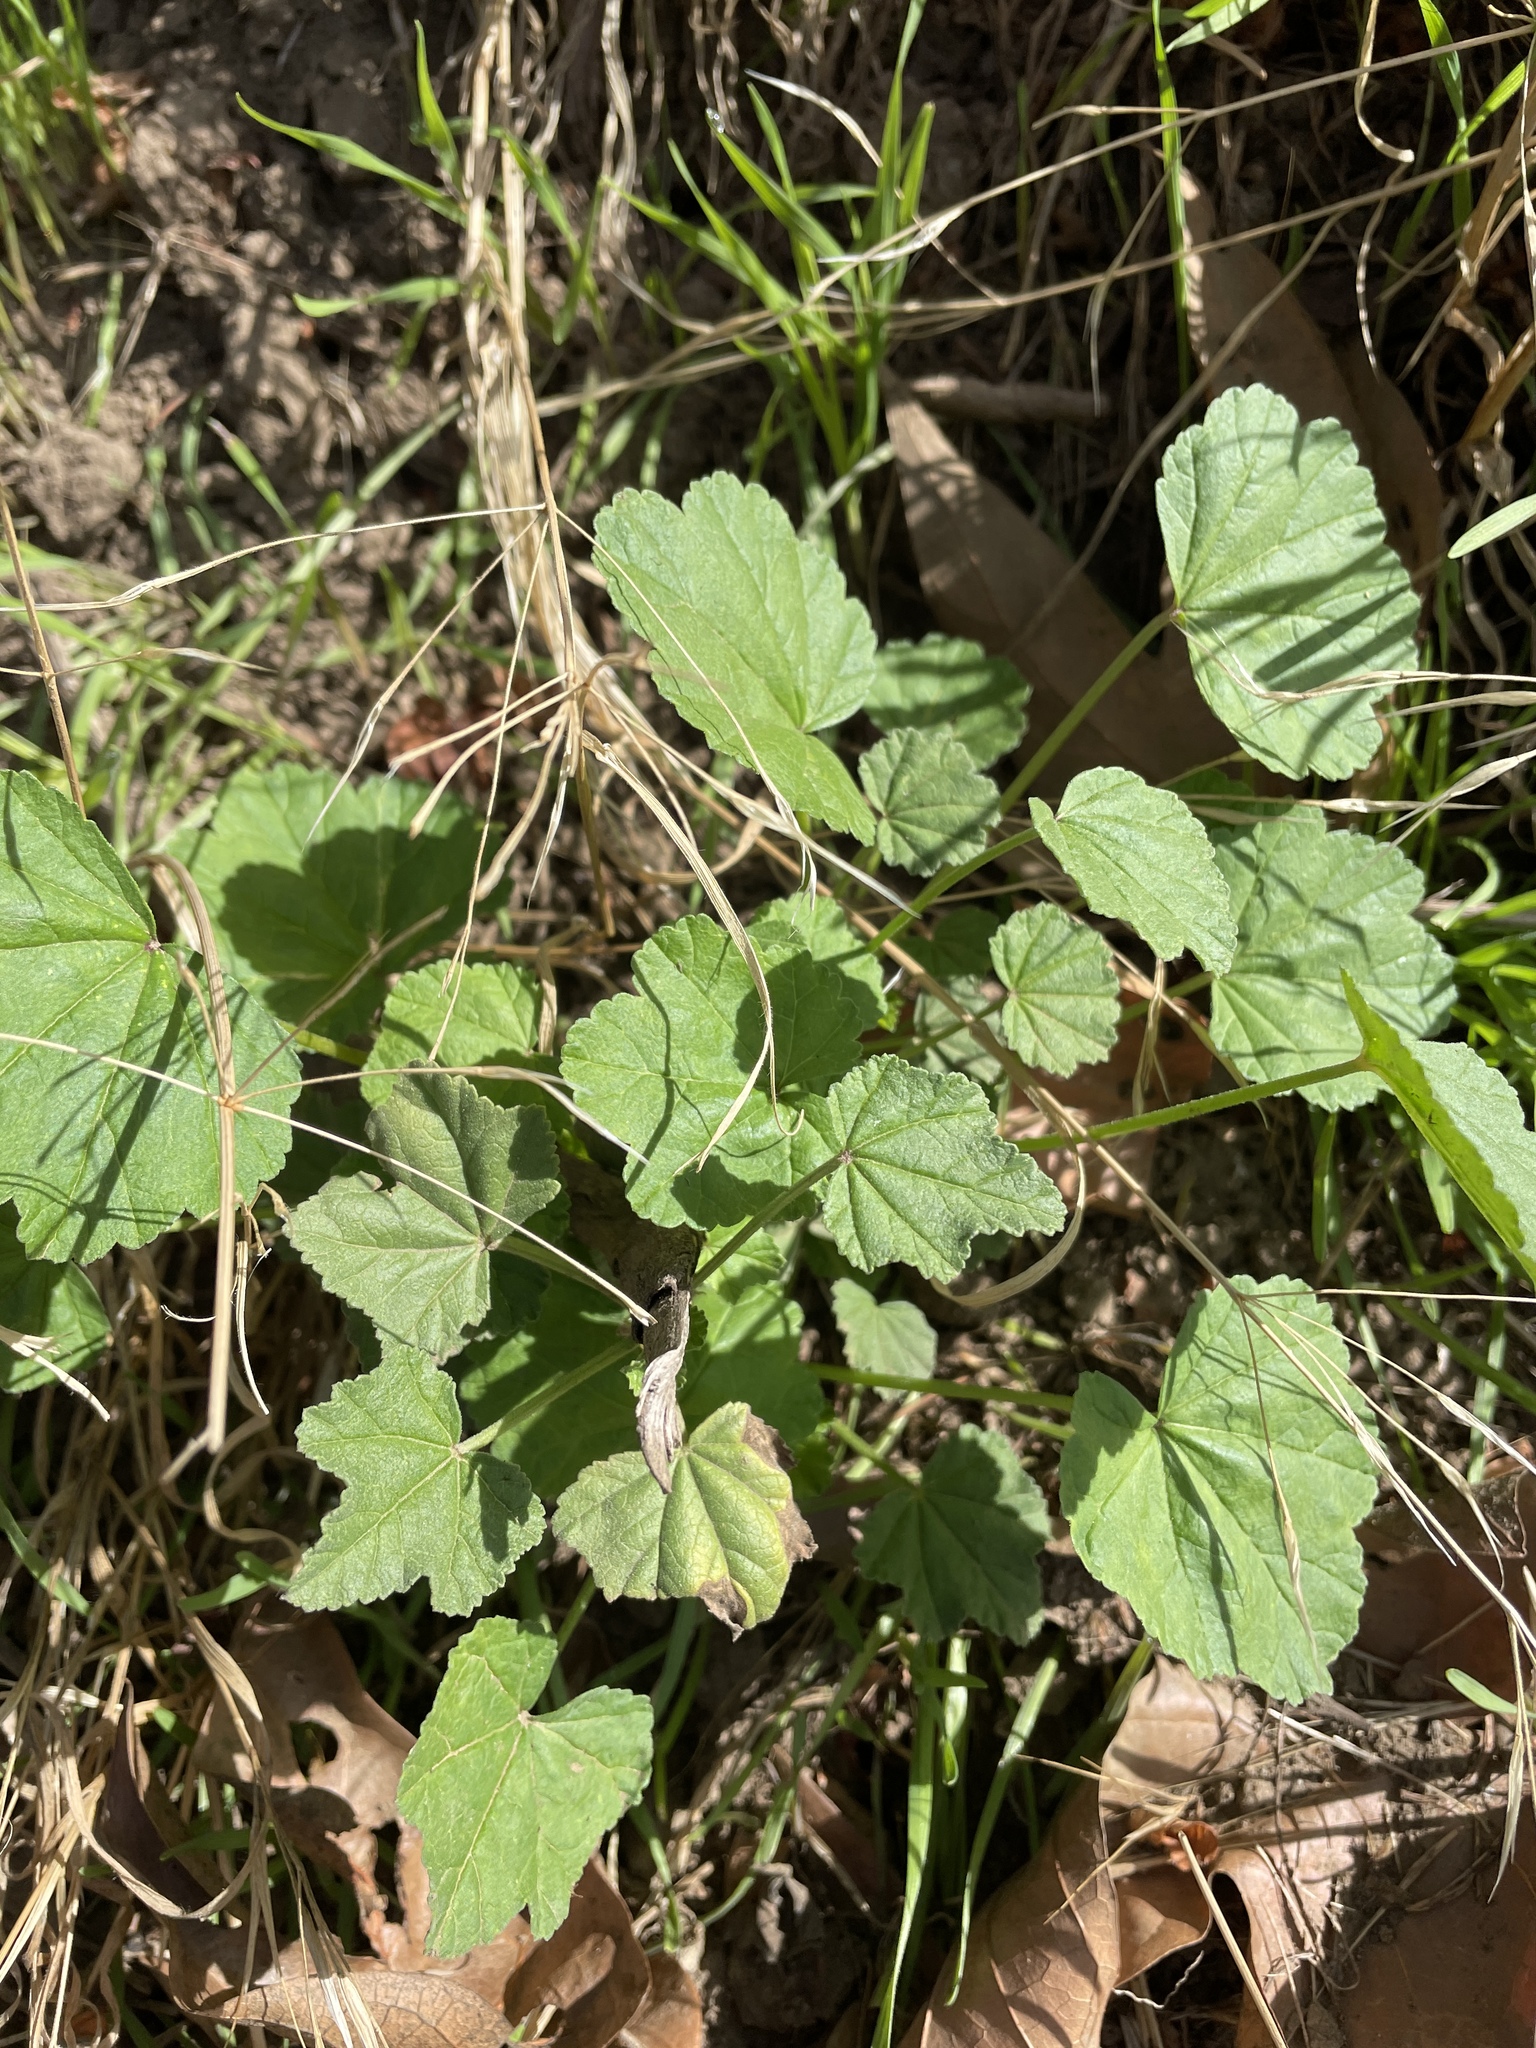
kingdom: Plantae
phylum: Tracheophyta
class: Magnoliopsida
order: Malvales
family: Malvaceae
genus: Malva
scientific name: Malva
